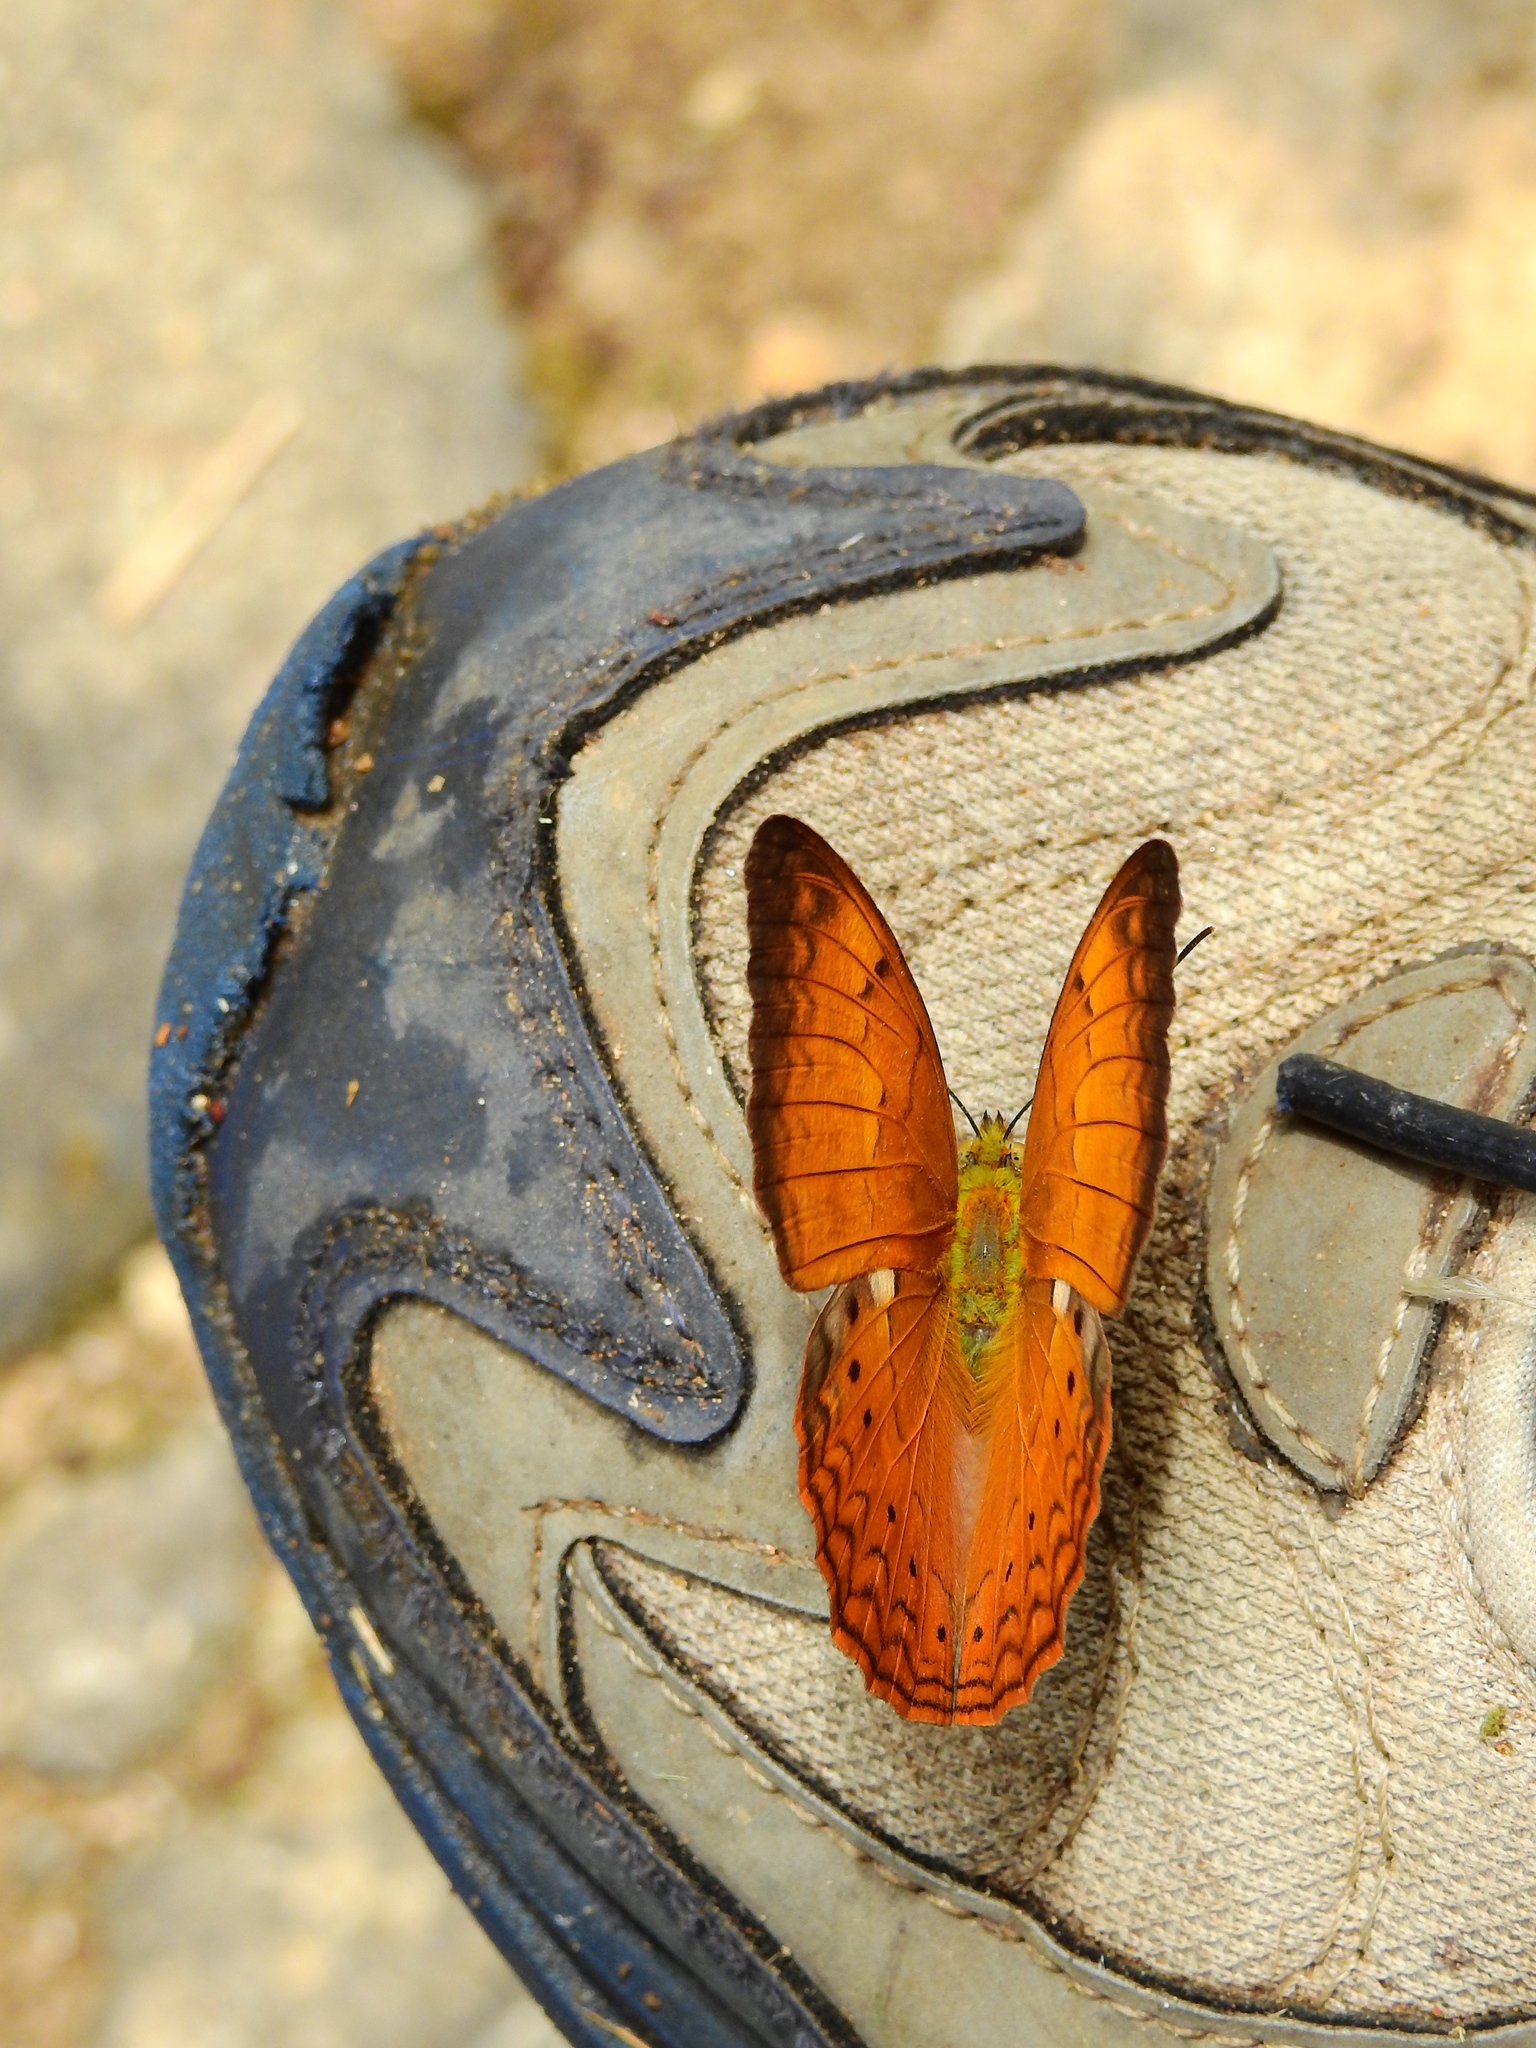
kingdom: Animalia
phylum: Arthropoda
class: Insecta
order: Lepidoptera
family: Nymphalidae
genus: Cirrochroa
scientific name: Cirrochroa thais
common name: Tamil yeoman
